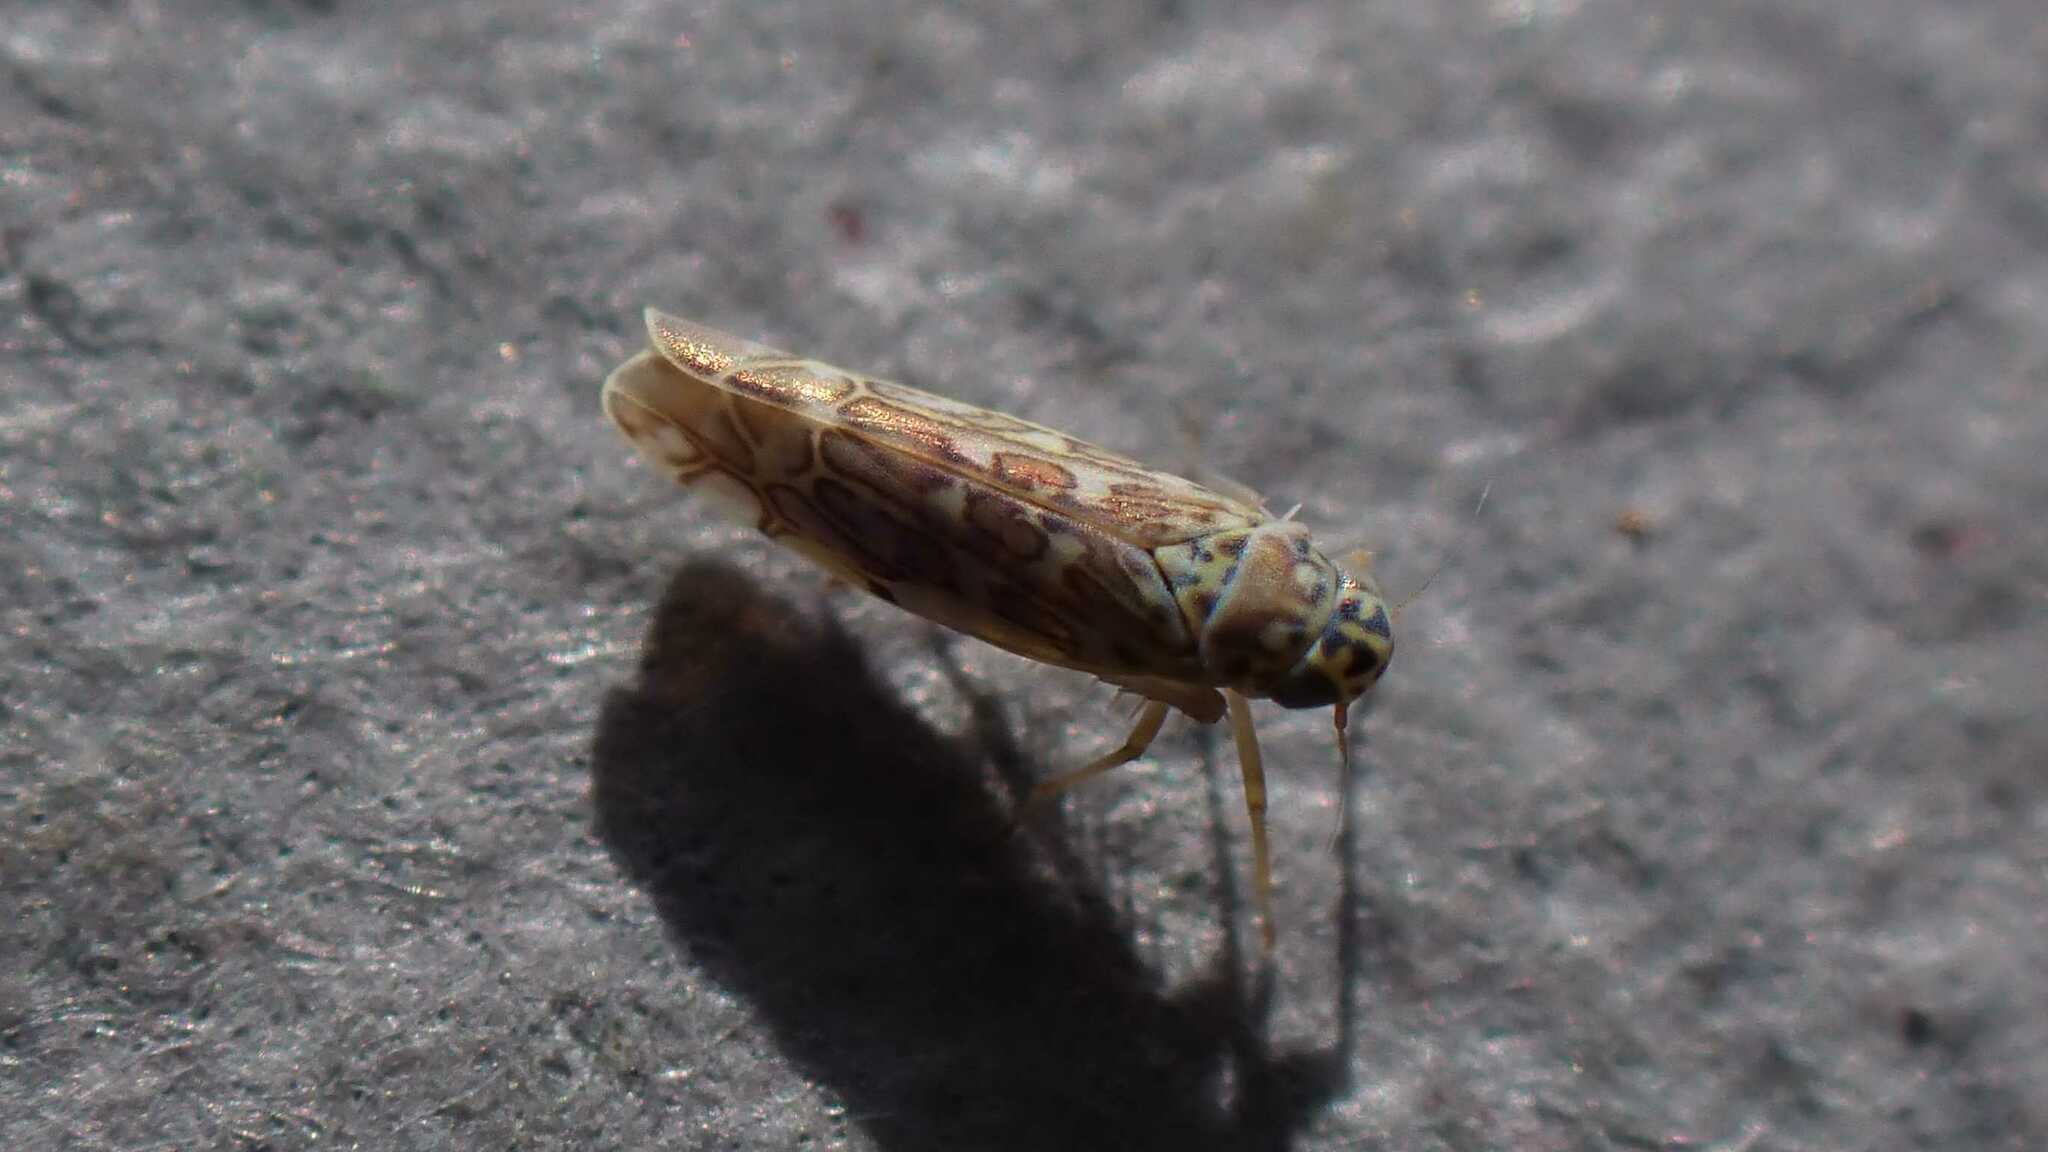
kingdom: Animalia
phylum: Arthropoda
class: Insecta
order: Hemiptera
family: Cicadellidae
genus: Eupteryx
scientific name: Eupteryx decemnotata
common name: Ligurian leafhopper
